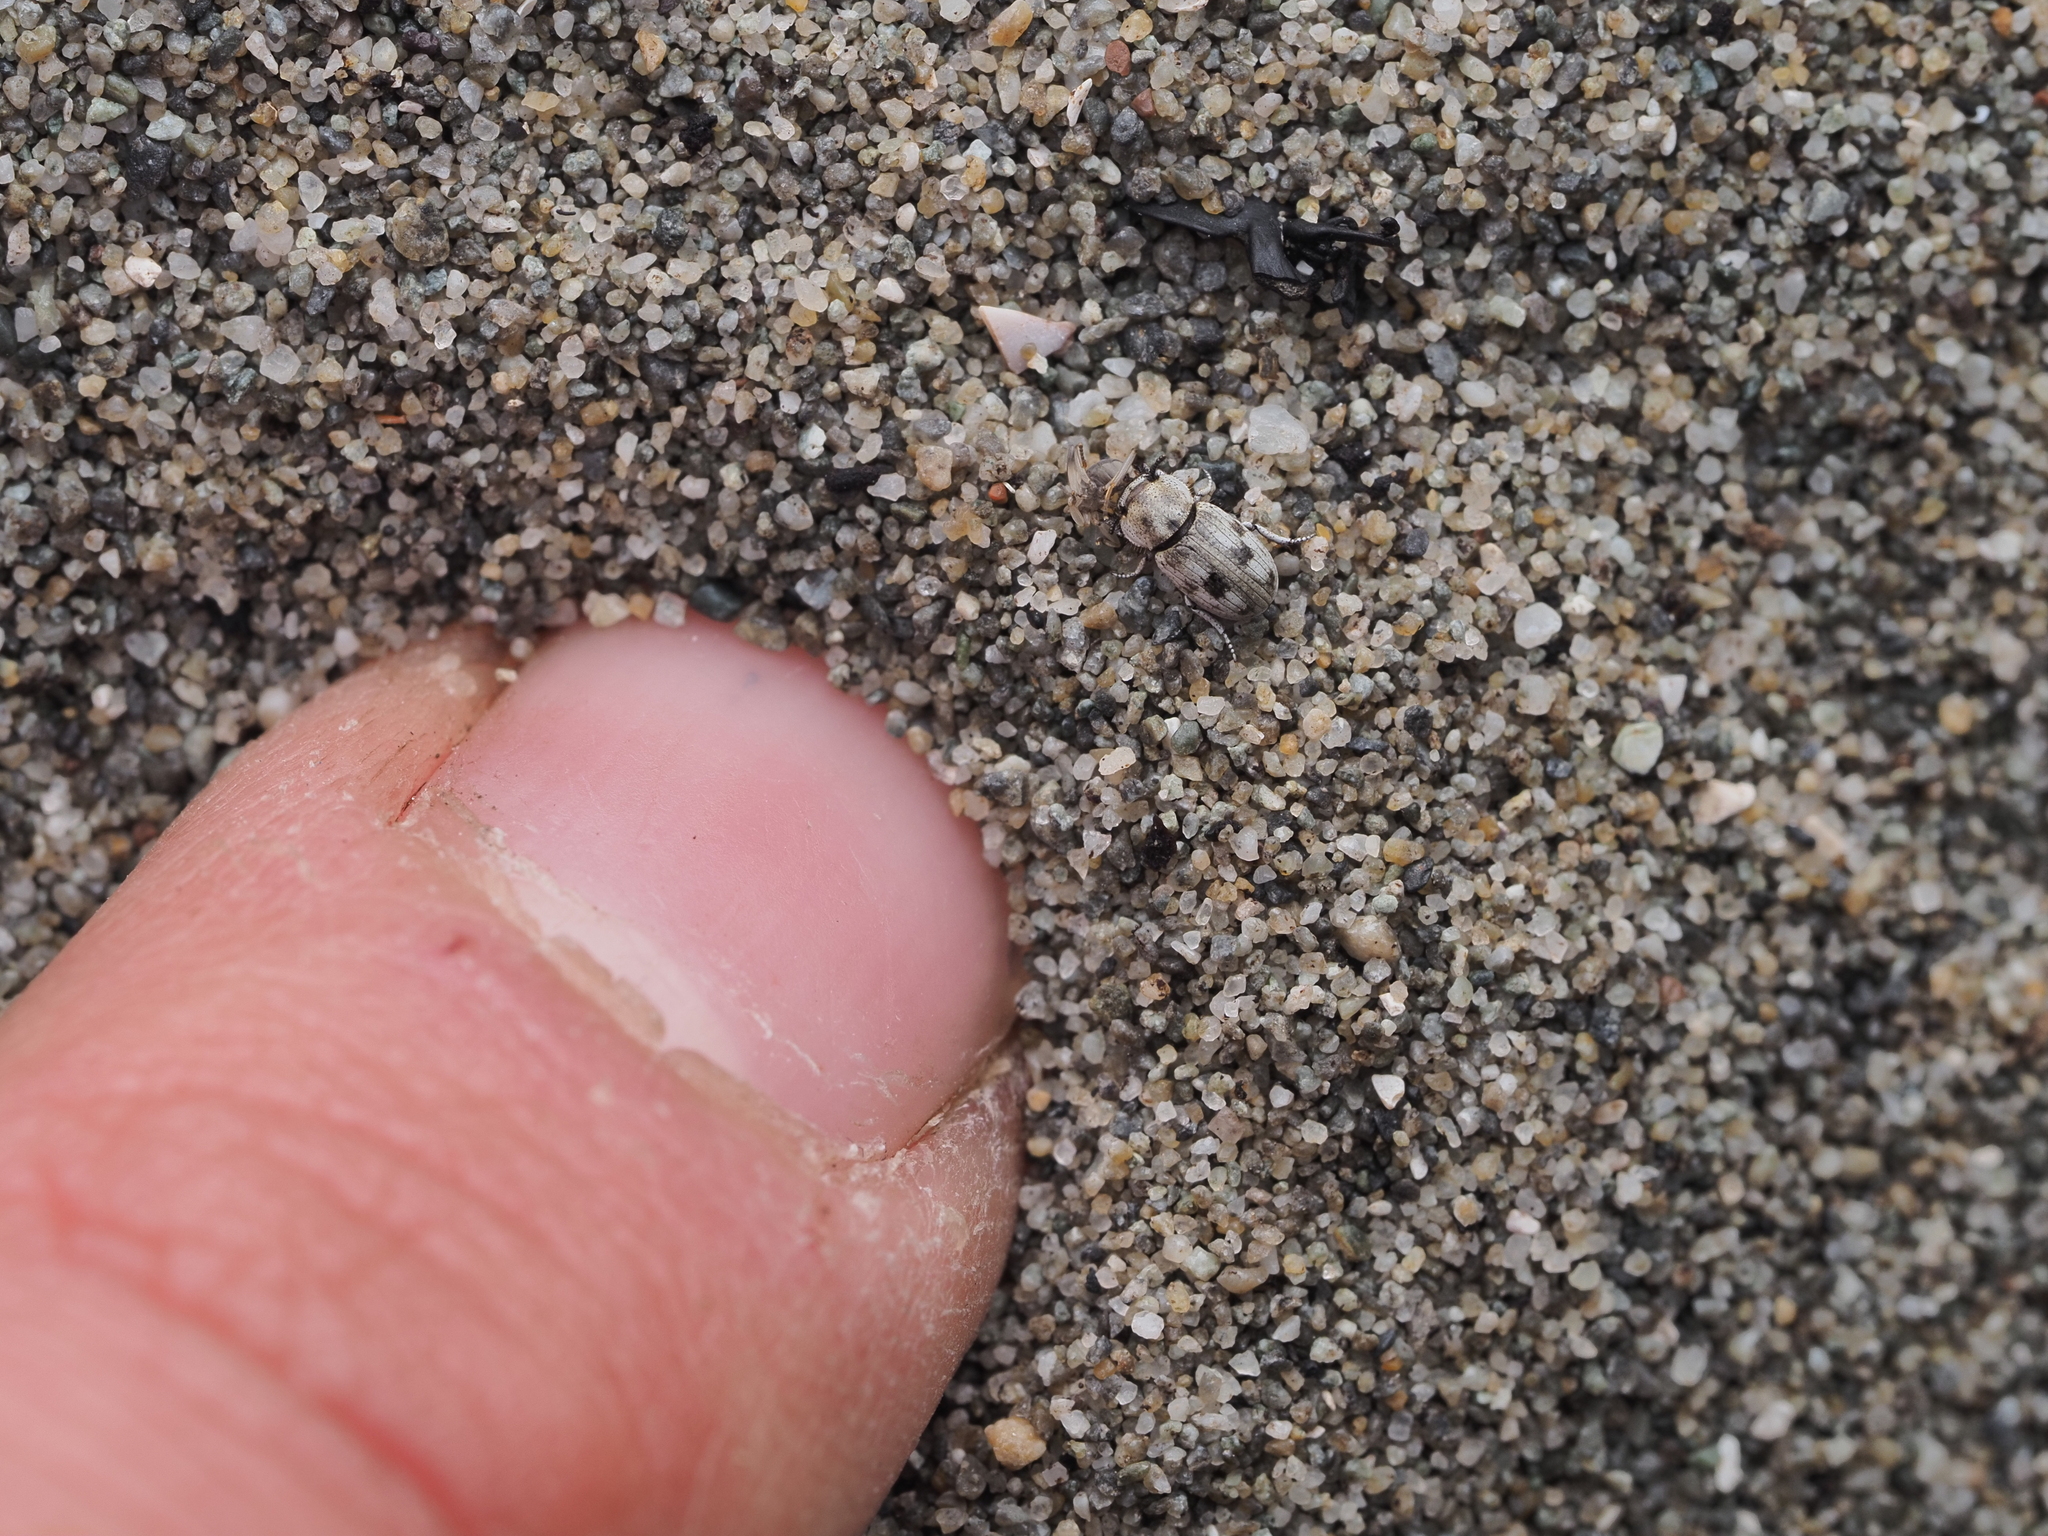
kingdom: Animalia
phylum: Arthropoda
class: Insecta
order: Coleoptera
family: Tenebrionidae
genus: Actizeta
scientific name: Actizeta
